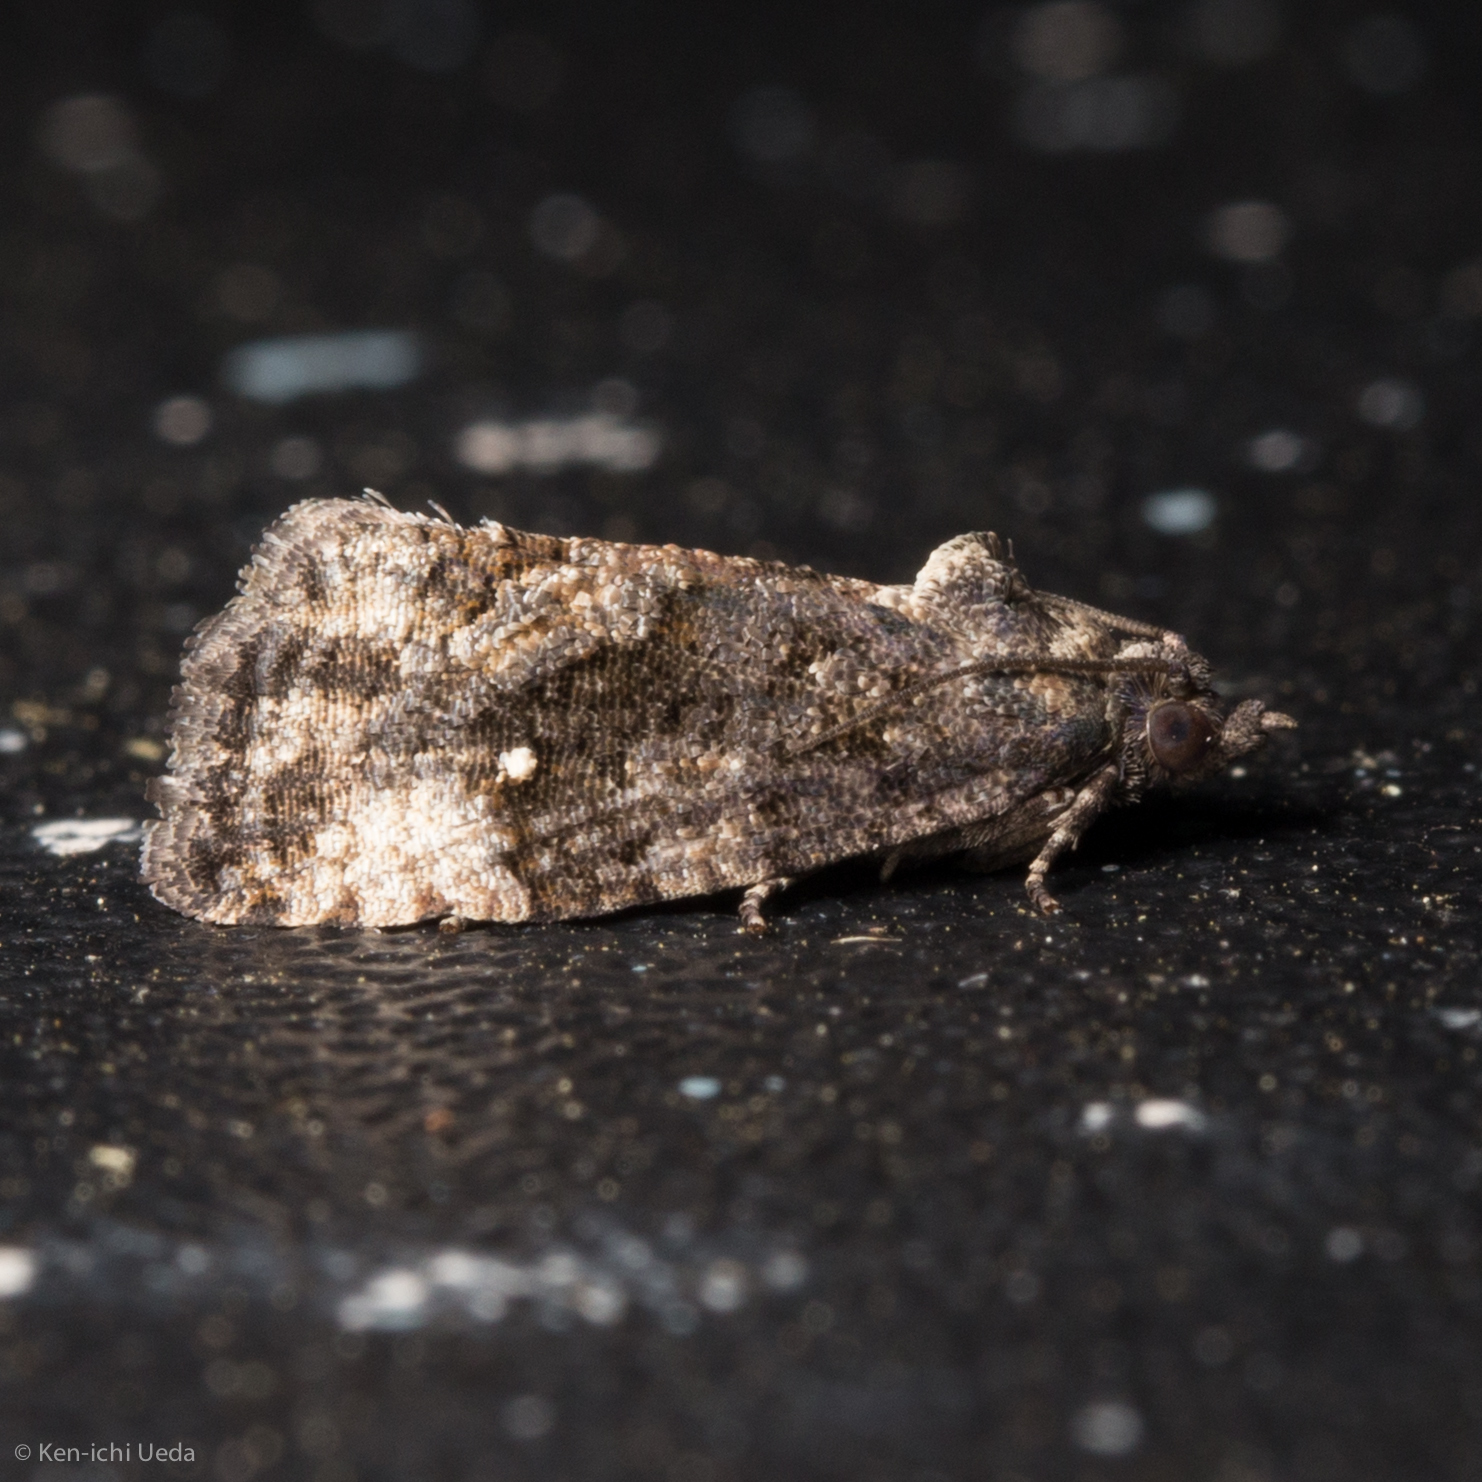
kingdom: Animalia
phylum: Arthropoda
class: Insecta
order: Lepidoptera
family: Tortricidae
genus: Gymnandrosoma
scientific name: Gymnandrosoma punctidiscanum
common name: Dotted ecdytolopha moth
